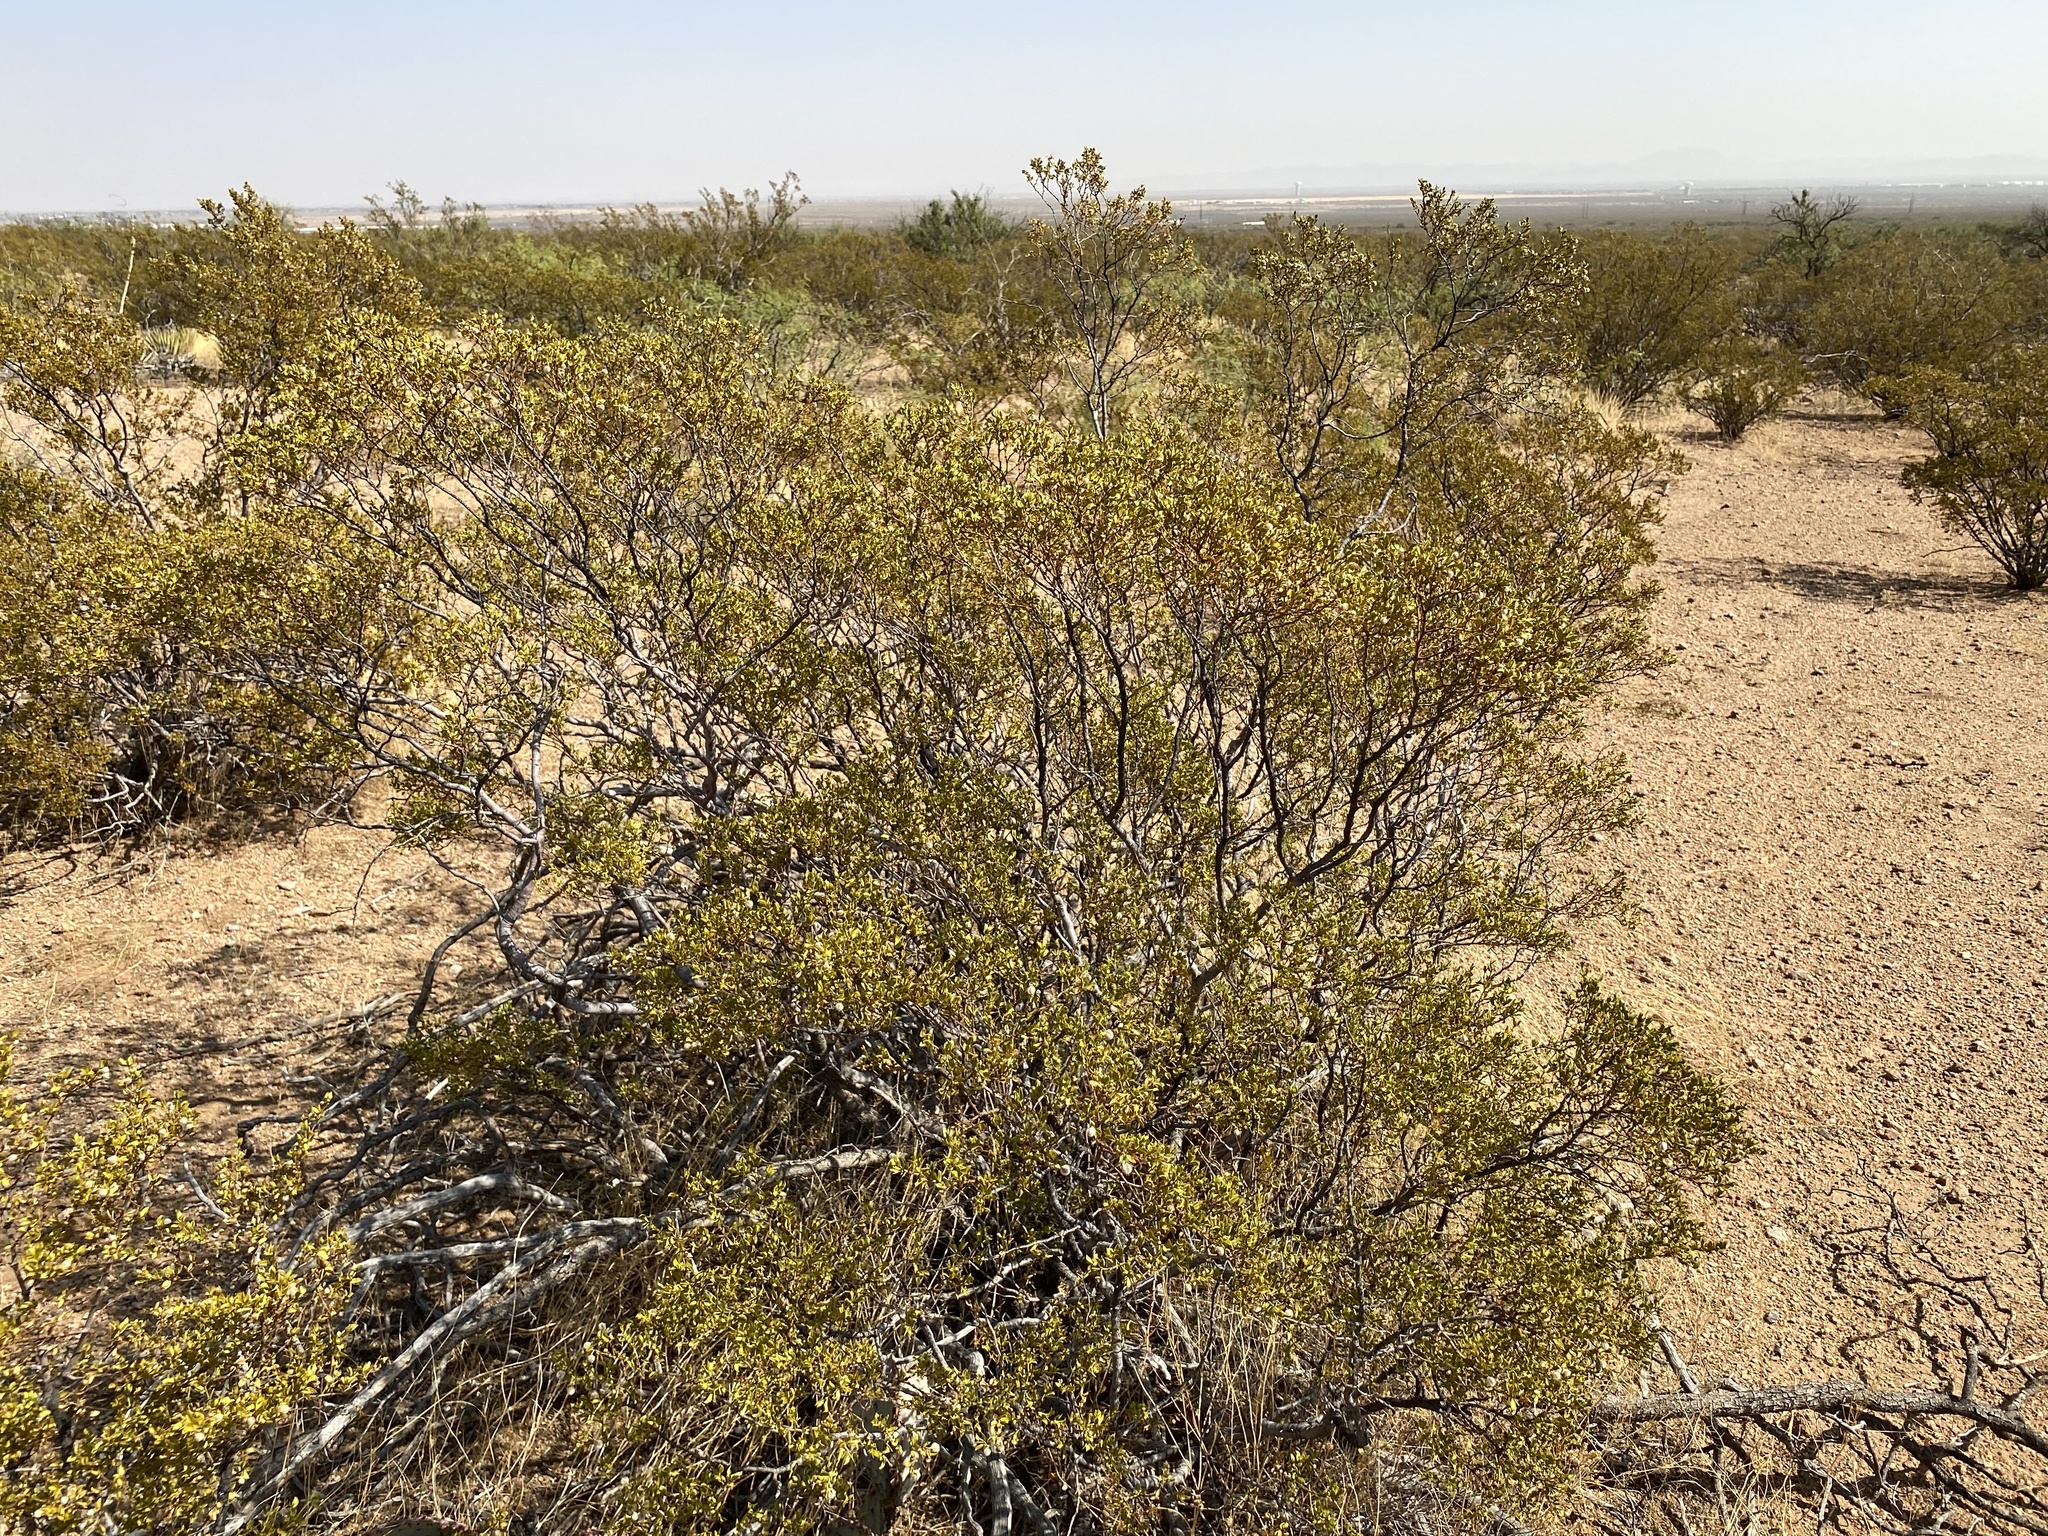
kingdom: Plantae
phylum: Tracheophyta
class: Magnoliopsida
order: Zygophyllales
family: Zygophyllaceae
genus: Larrea
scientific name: Larrea tridentata
